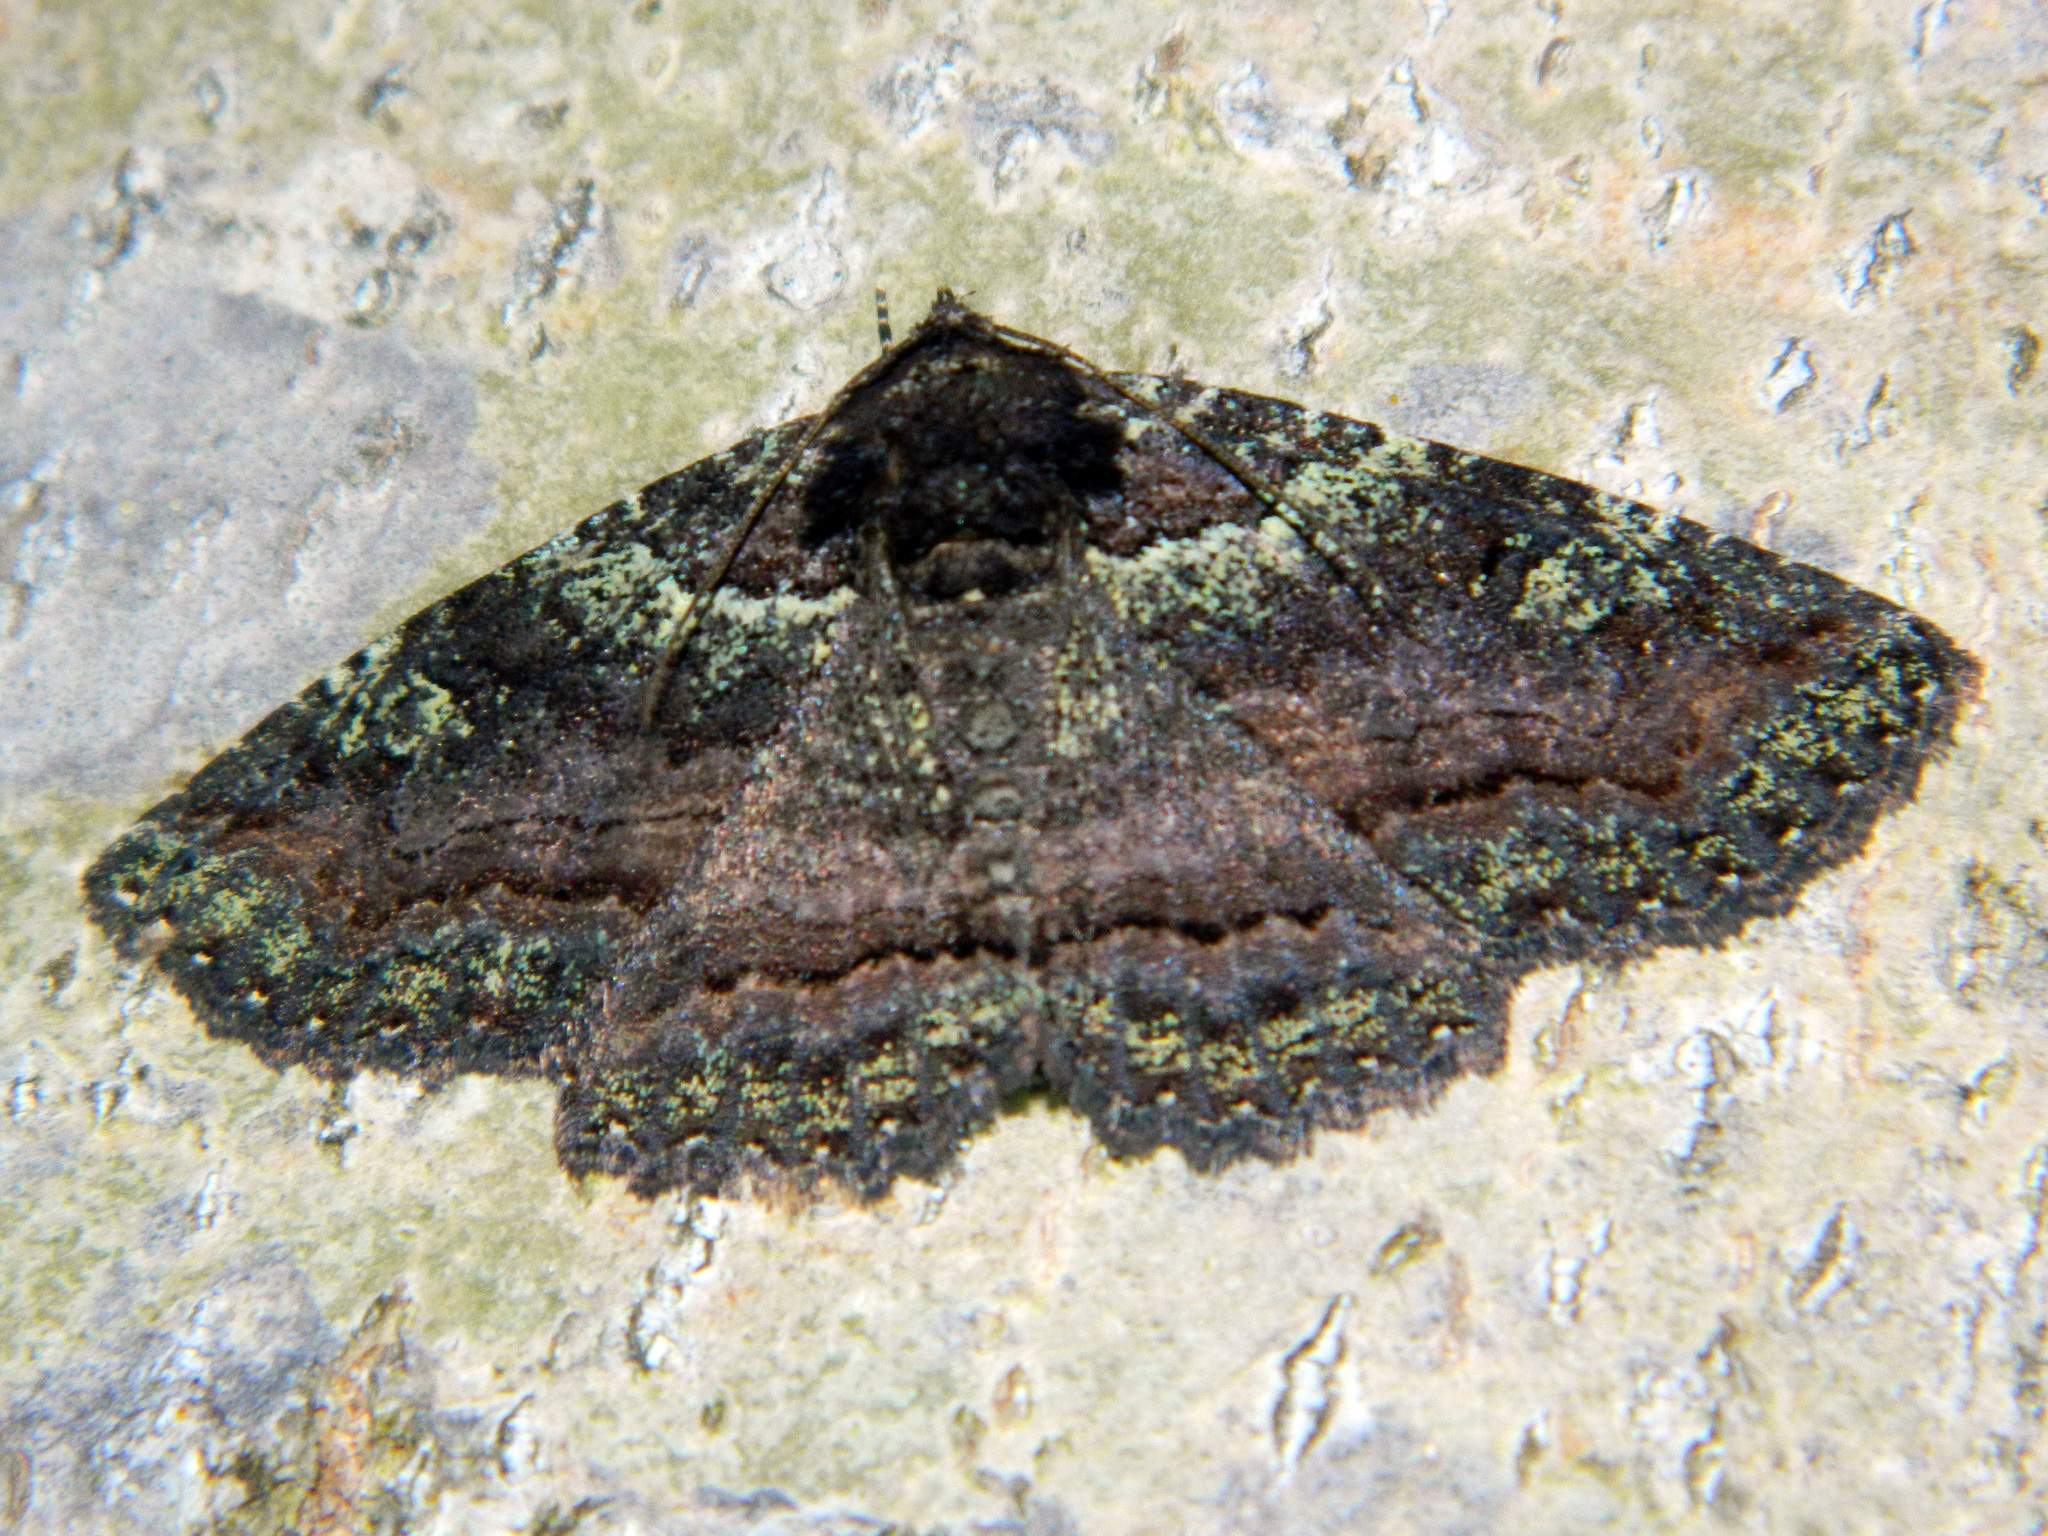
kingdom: Animalia
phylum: Arthropoda
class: Insecta
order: Lepidoptera
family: Erebidae
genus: Zale
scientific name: Zale aeruginosa
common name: Green-dusted zale moth
